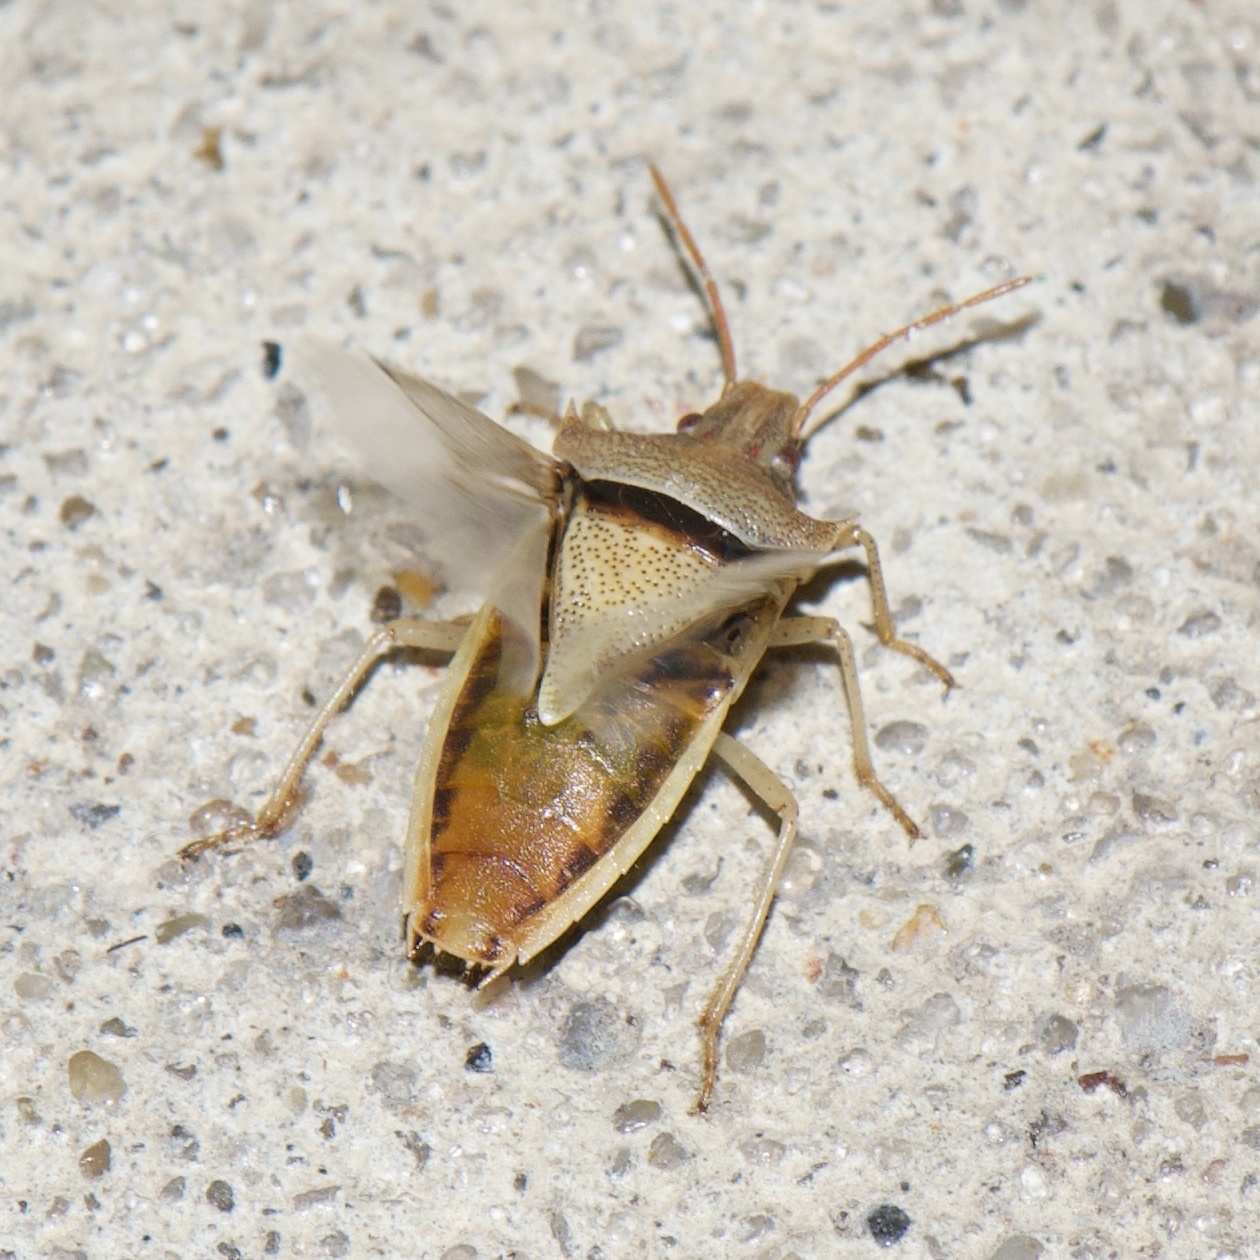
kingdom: Animalia
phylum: Arthropoda
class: Insecta
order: Hemiptera
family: Pentatomidae
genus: Oebalus
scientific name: Oebalus pugnax
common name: Rice stink bug
